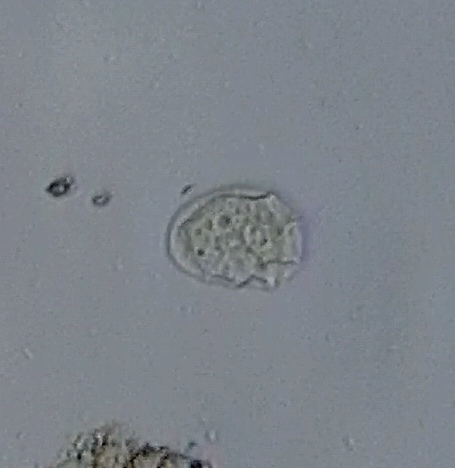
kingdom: Chromista
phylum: Ciliophora
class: Cyrtophoria
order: Cyrtophorida
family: Chilodonellidae
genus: Odontochlamys
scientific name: Odontochlamys gouraudi
